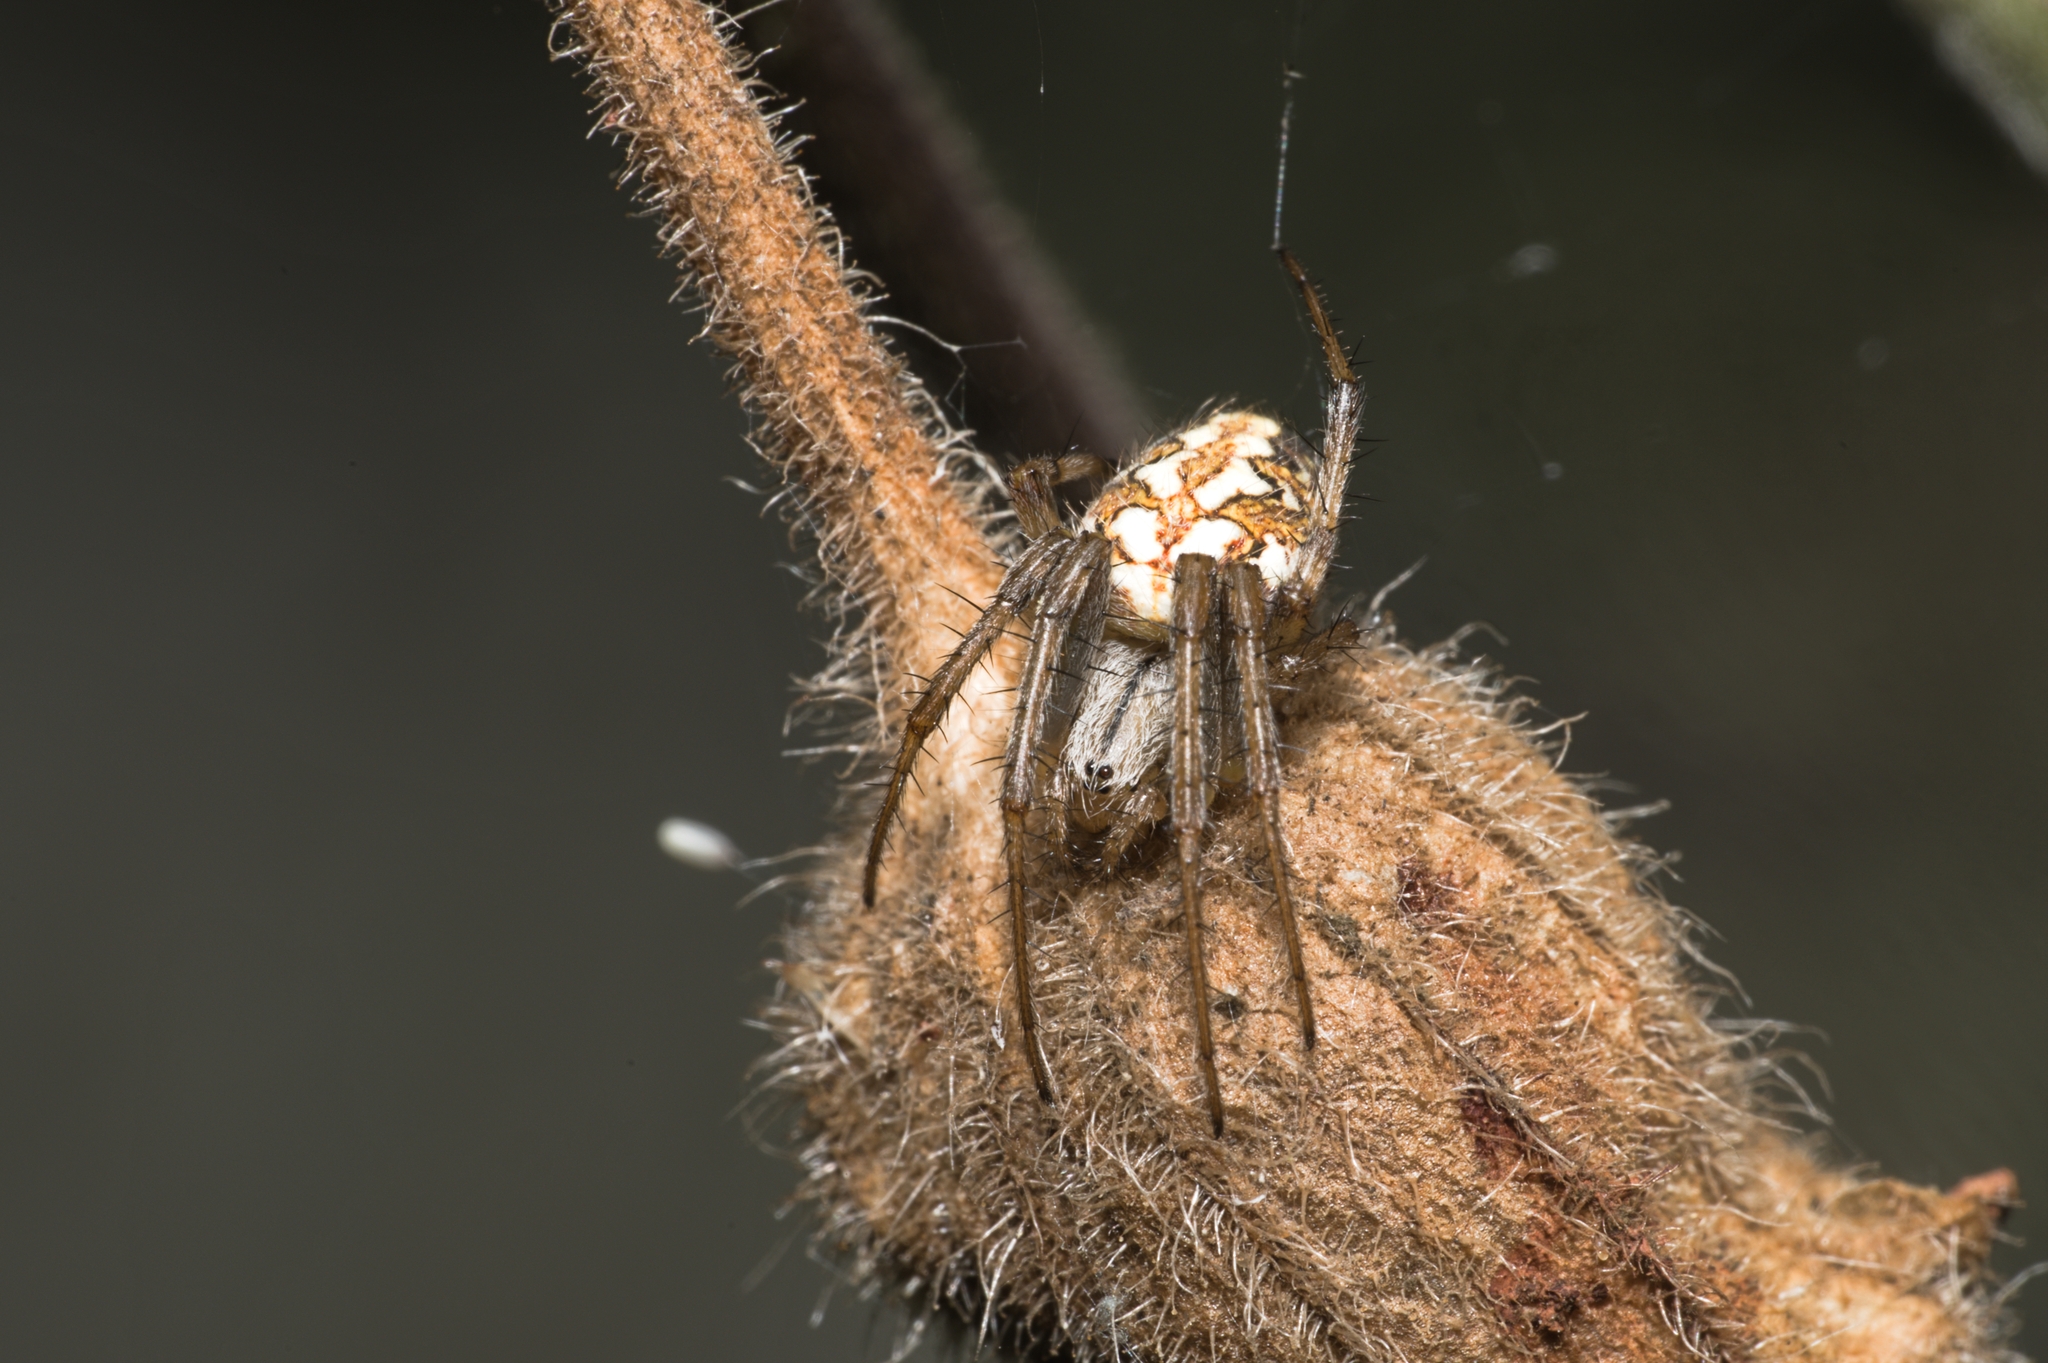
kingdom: Animalia
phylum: Arthropoda
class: Arachnida
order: Araneae
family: Araneidae
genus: Neoscona
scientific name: Neoscona adianta
